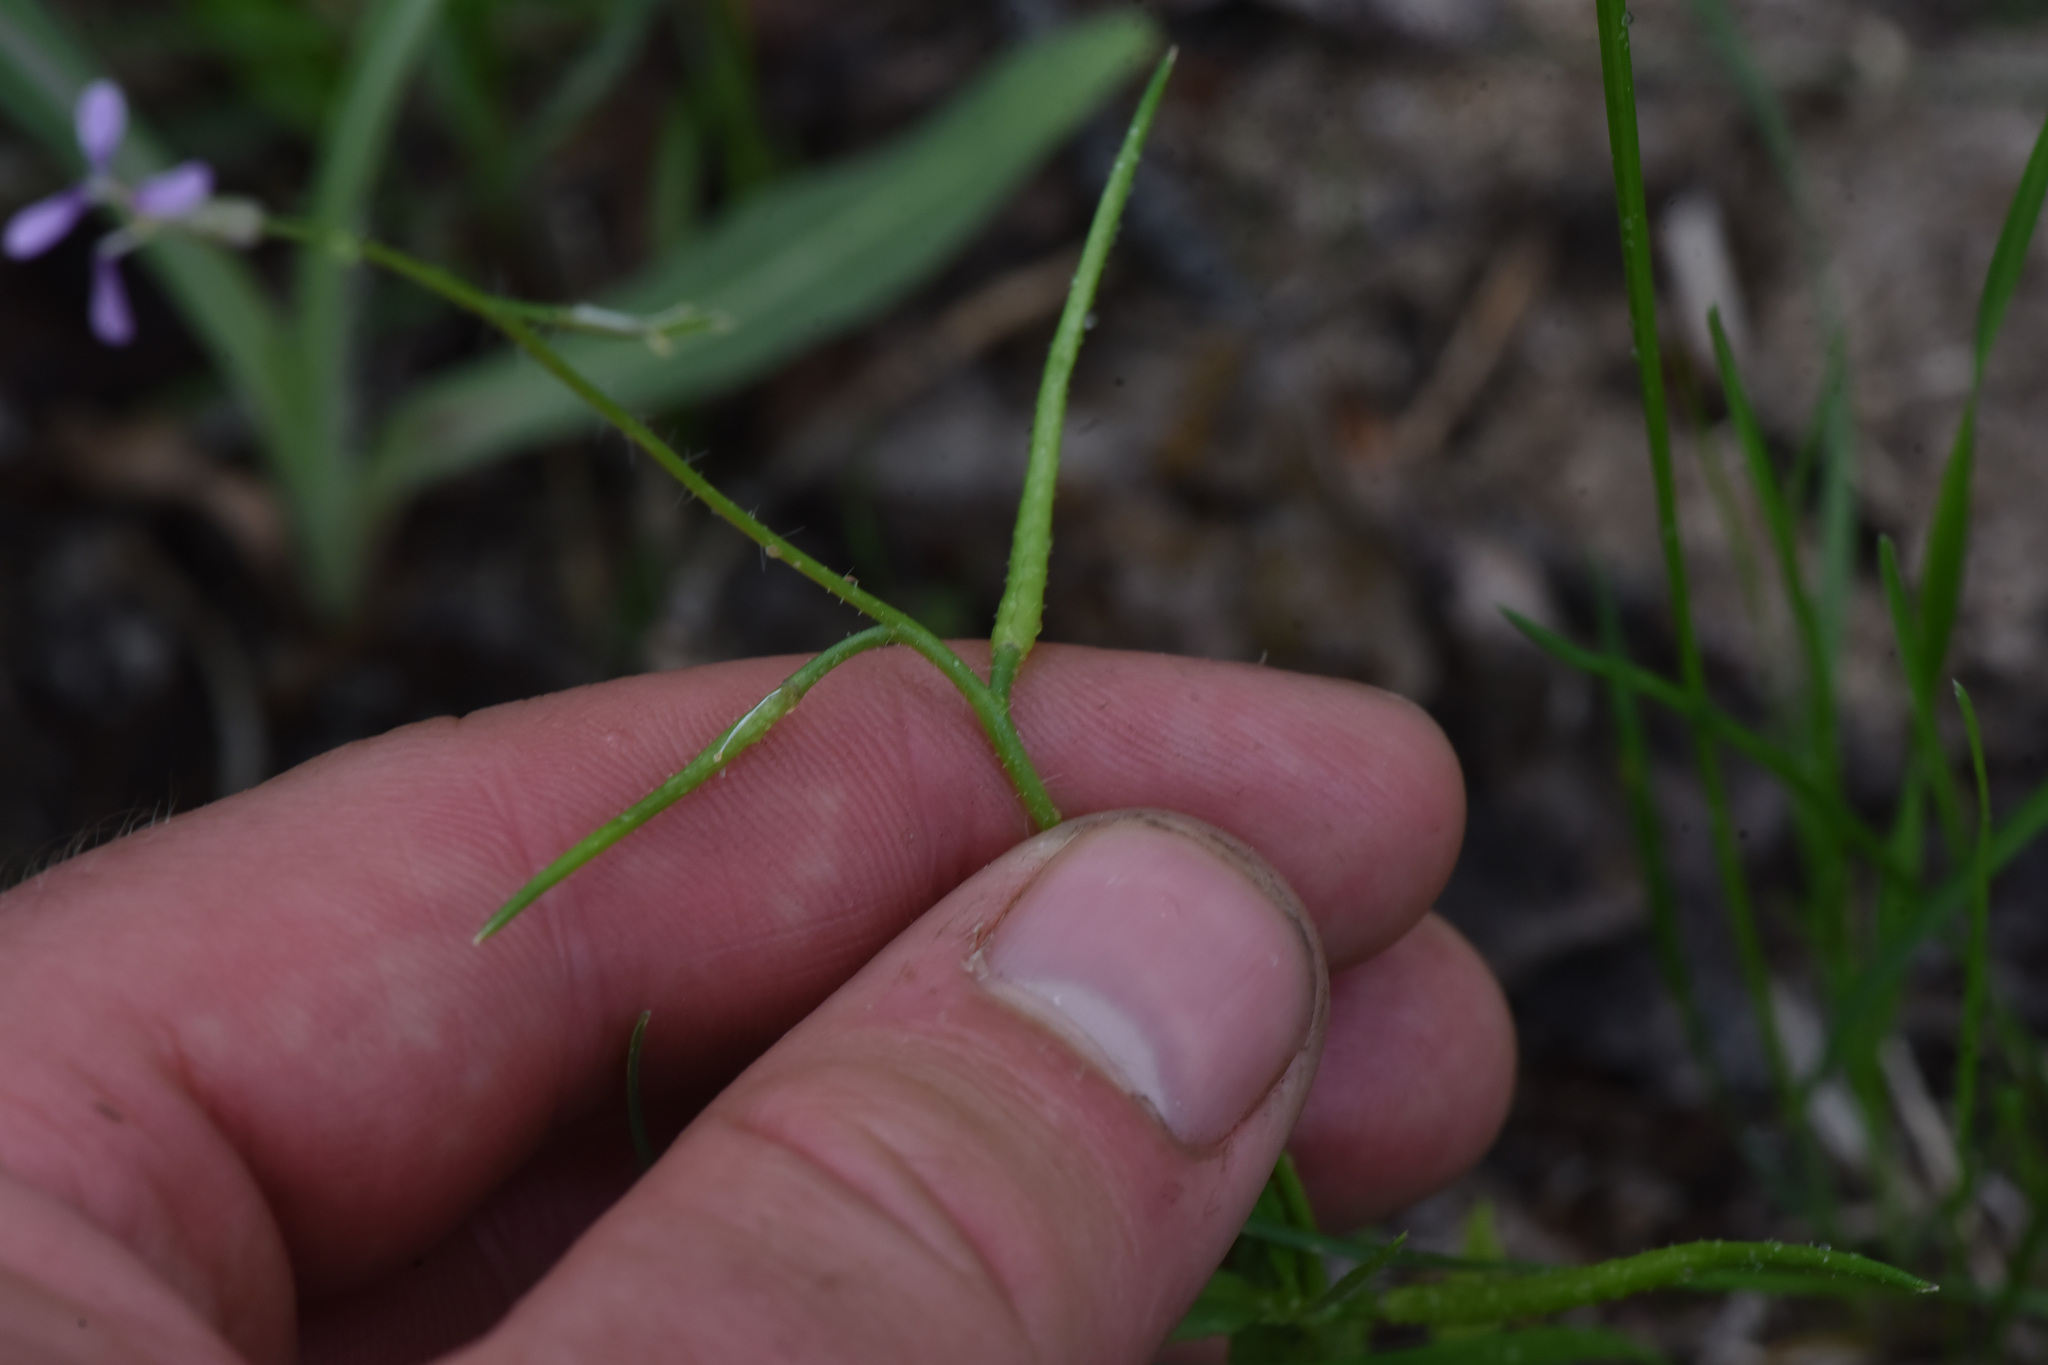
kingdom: Plantae
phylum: Tracheophyta
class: Magnoliopsida
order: Brassicales
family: Brassicaceae
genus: Chorispora
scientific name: Chorispora tenella
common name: Crossflower
